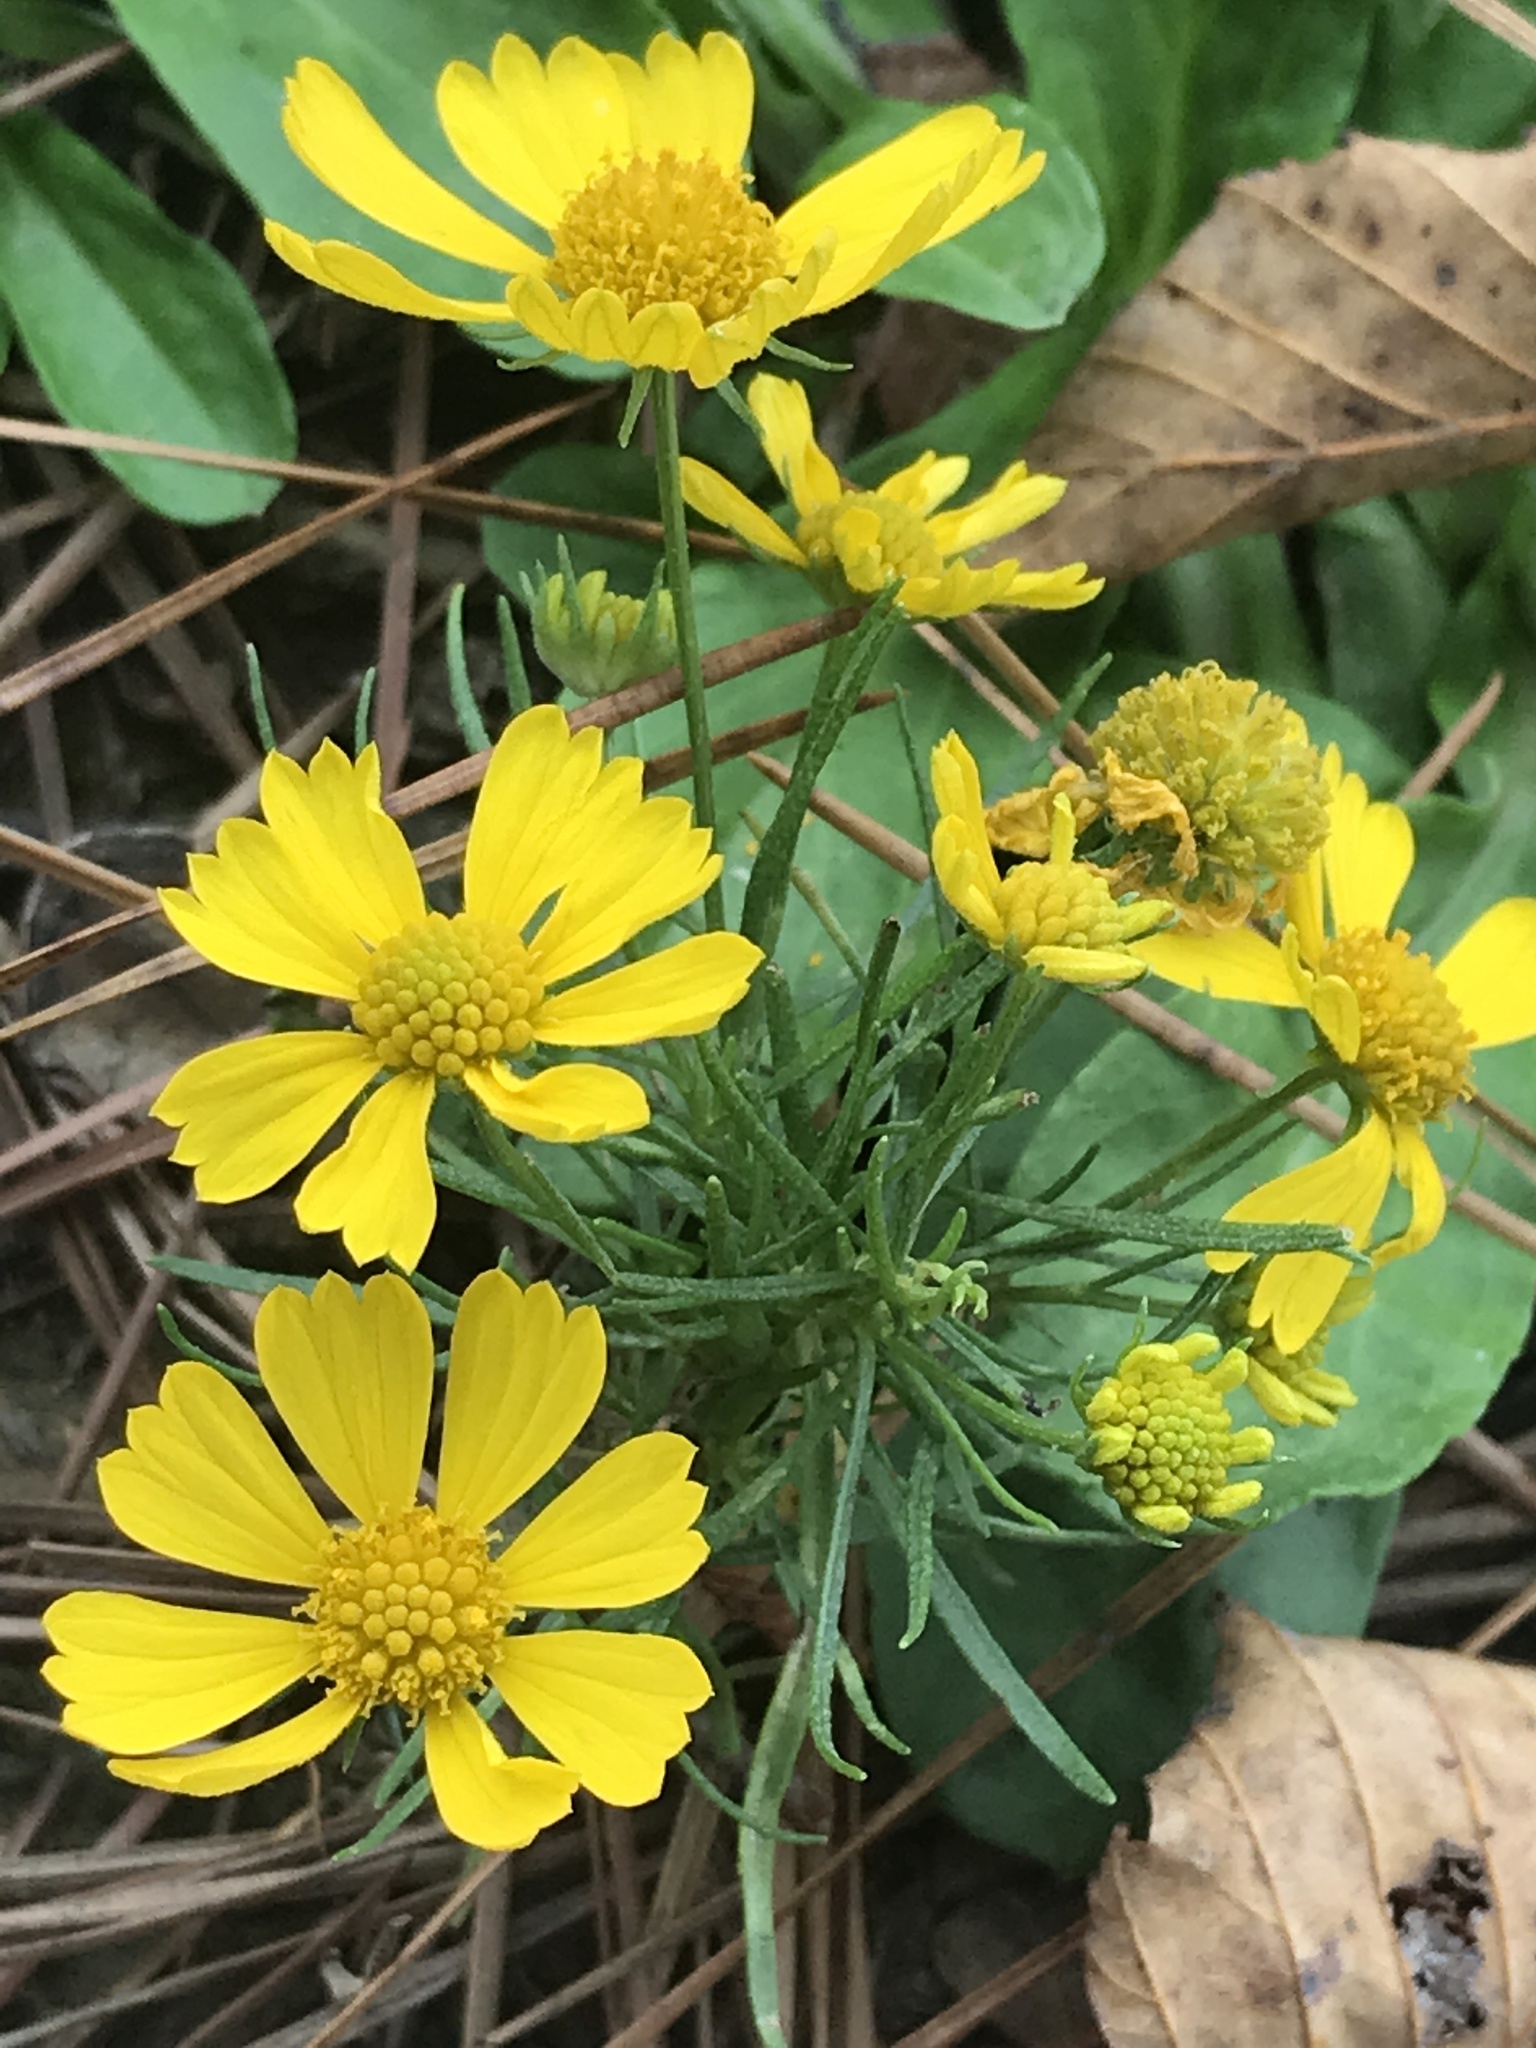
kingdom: Plantae
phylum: Tracheophyta
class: Magnoliopsida
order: Asterales
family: Asteraceae
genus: Helenium
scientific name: Helenium amarum
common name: Bitter sneezeweed
